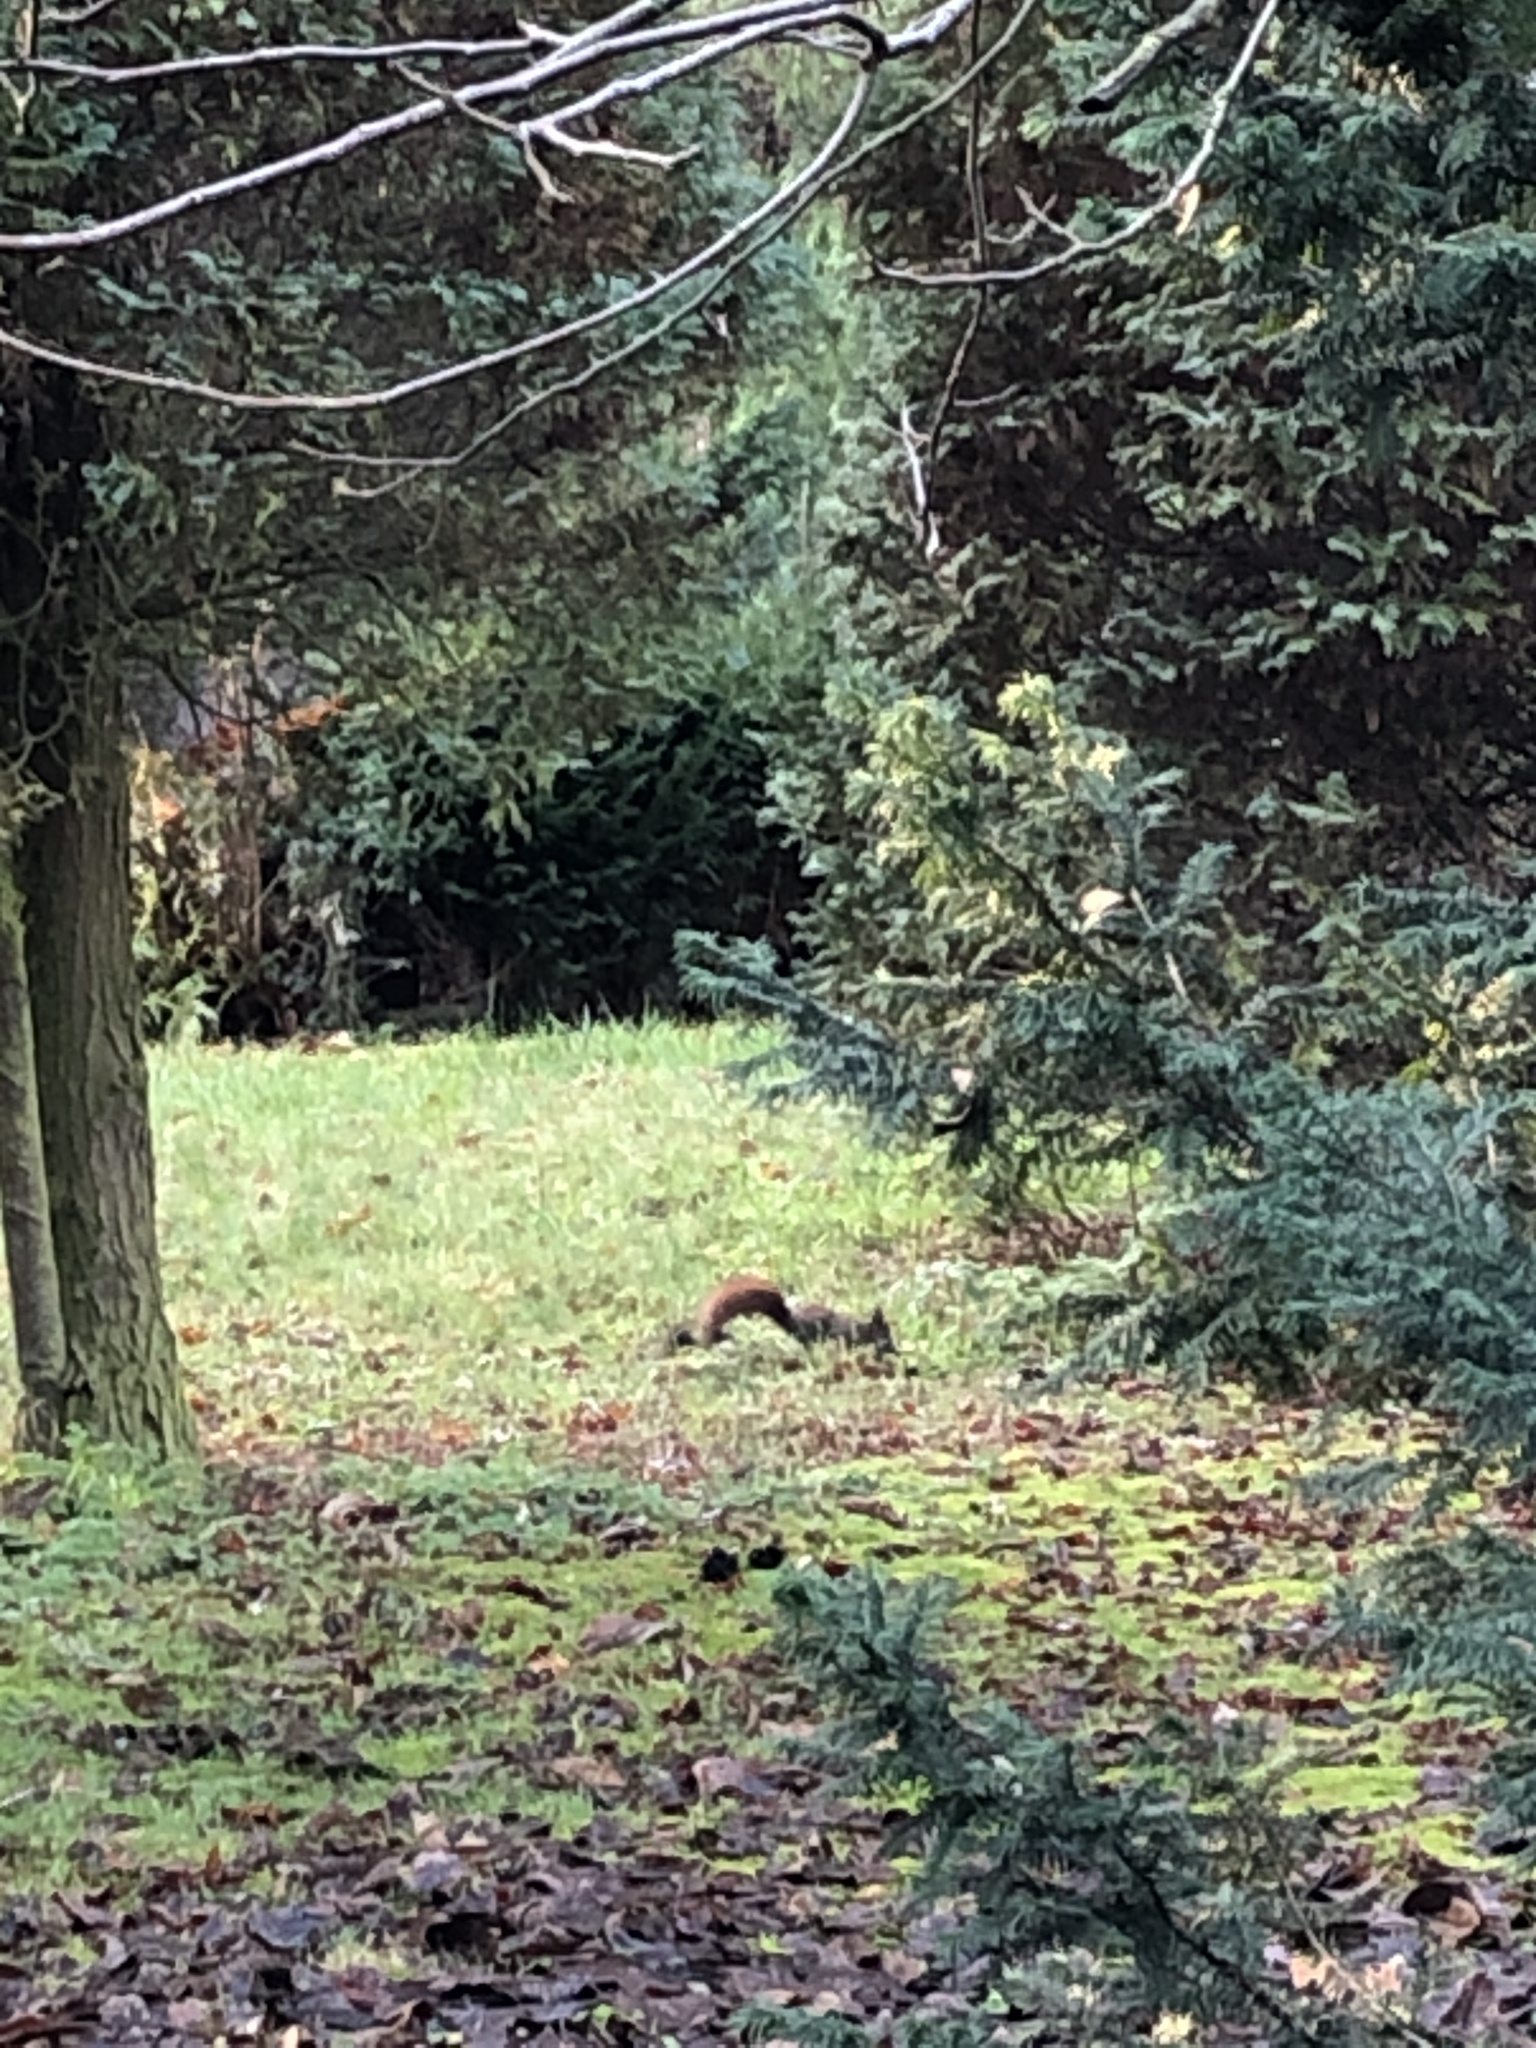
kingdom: Animalia
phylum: Chordata
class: Mammalia
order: Rodentia
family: Sciuridae
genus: Sciurus
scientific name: Sciurus vulgaris
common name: Eurasian red squirrel
